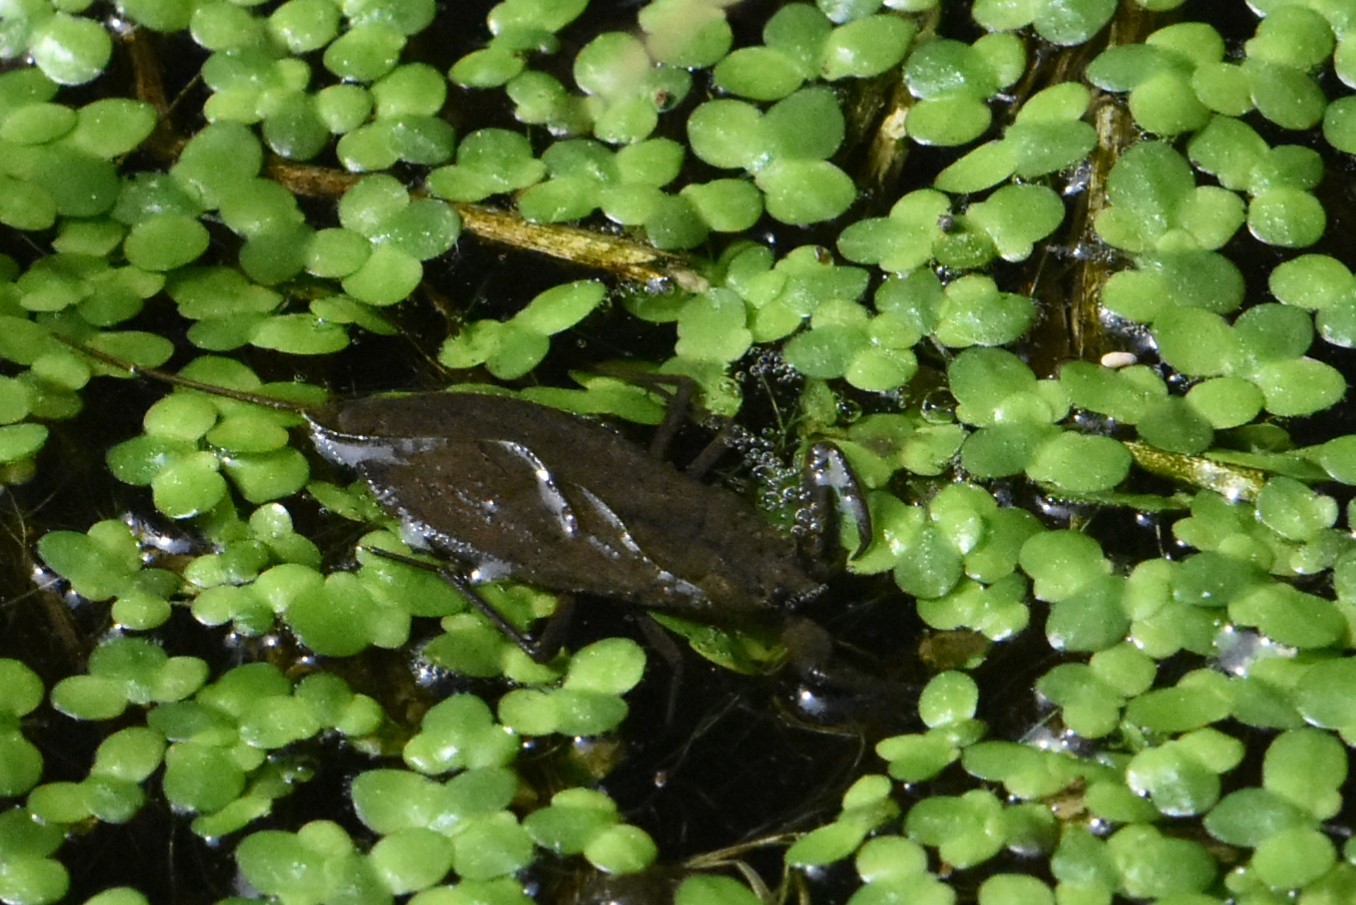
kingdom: Animalia
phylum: Arthropoda
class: Insecta
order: Hemiptera
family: Nepidae
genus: Nepa
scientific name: Nepa cinerea
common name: Water scorpion
